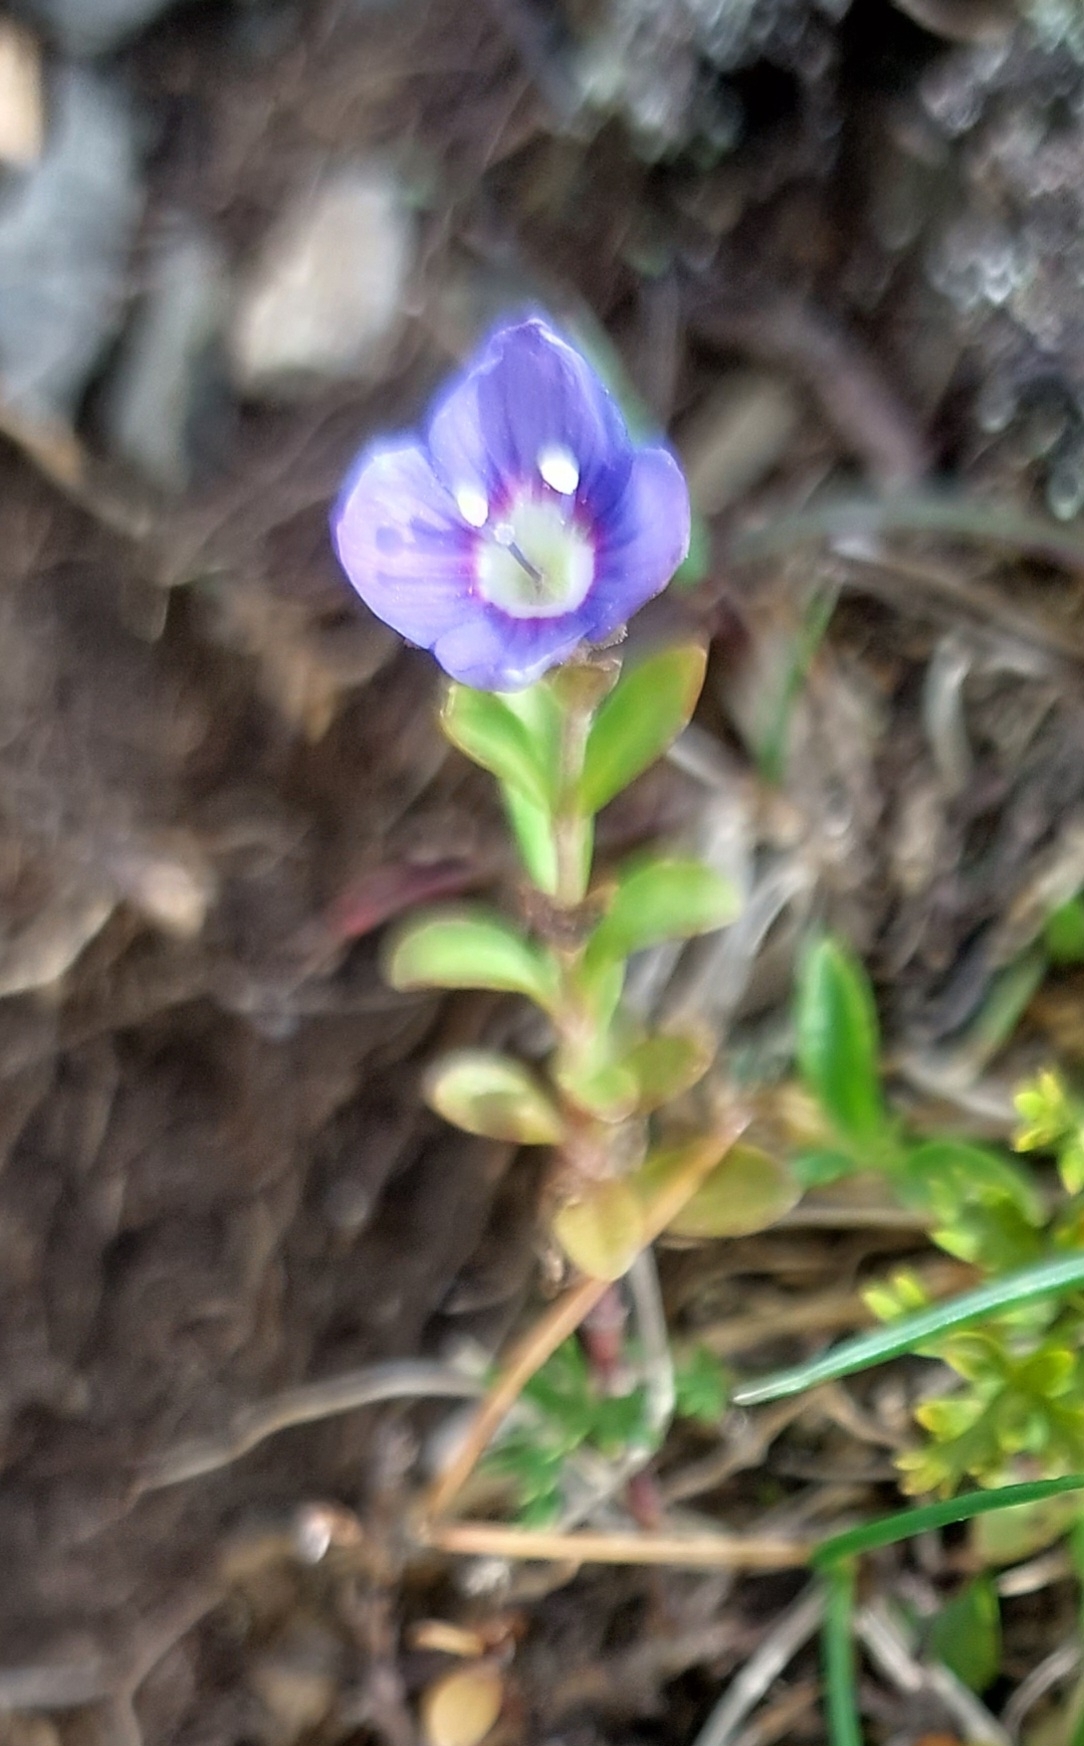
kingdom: Plantae
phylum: Tracheophyta
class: Magnoliopsida
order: Lamiales
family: Plantaginaceae
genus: Veronica
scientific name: Veronica fruticans
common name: Rock speedwell
